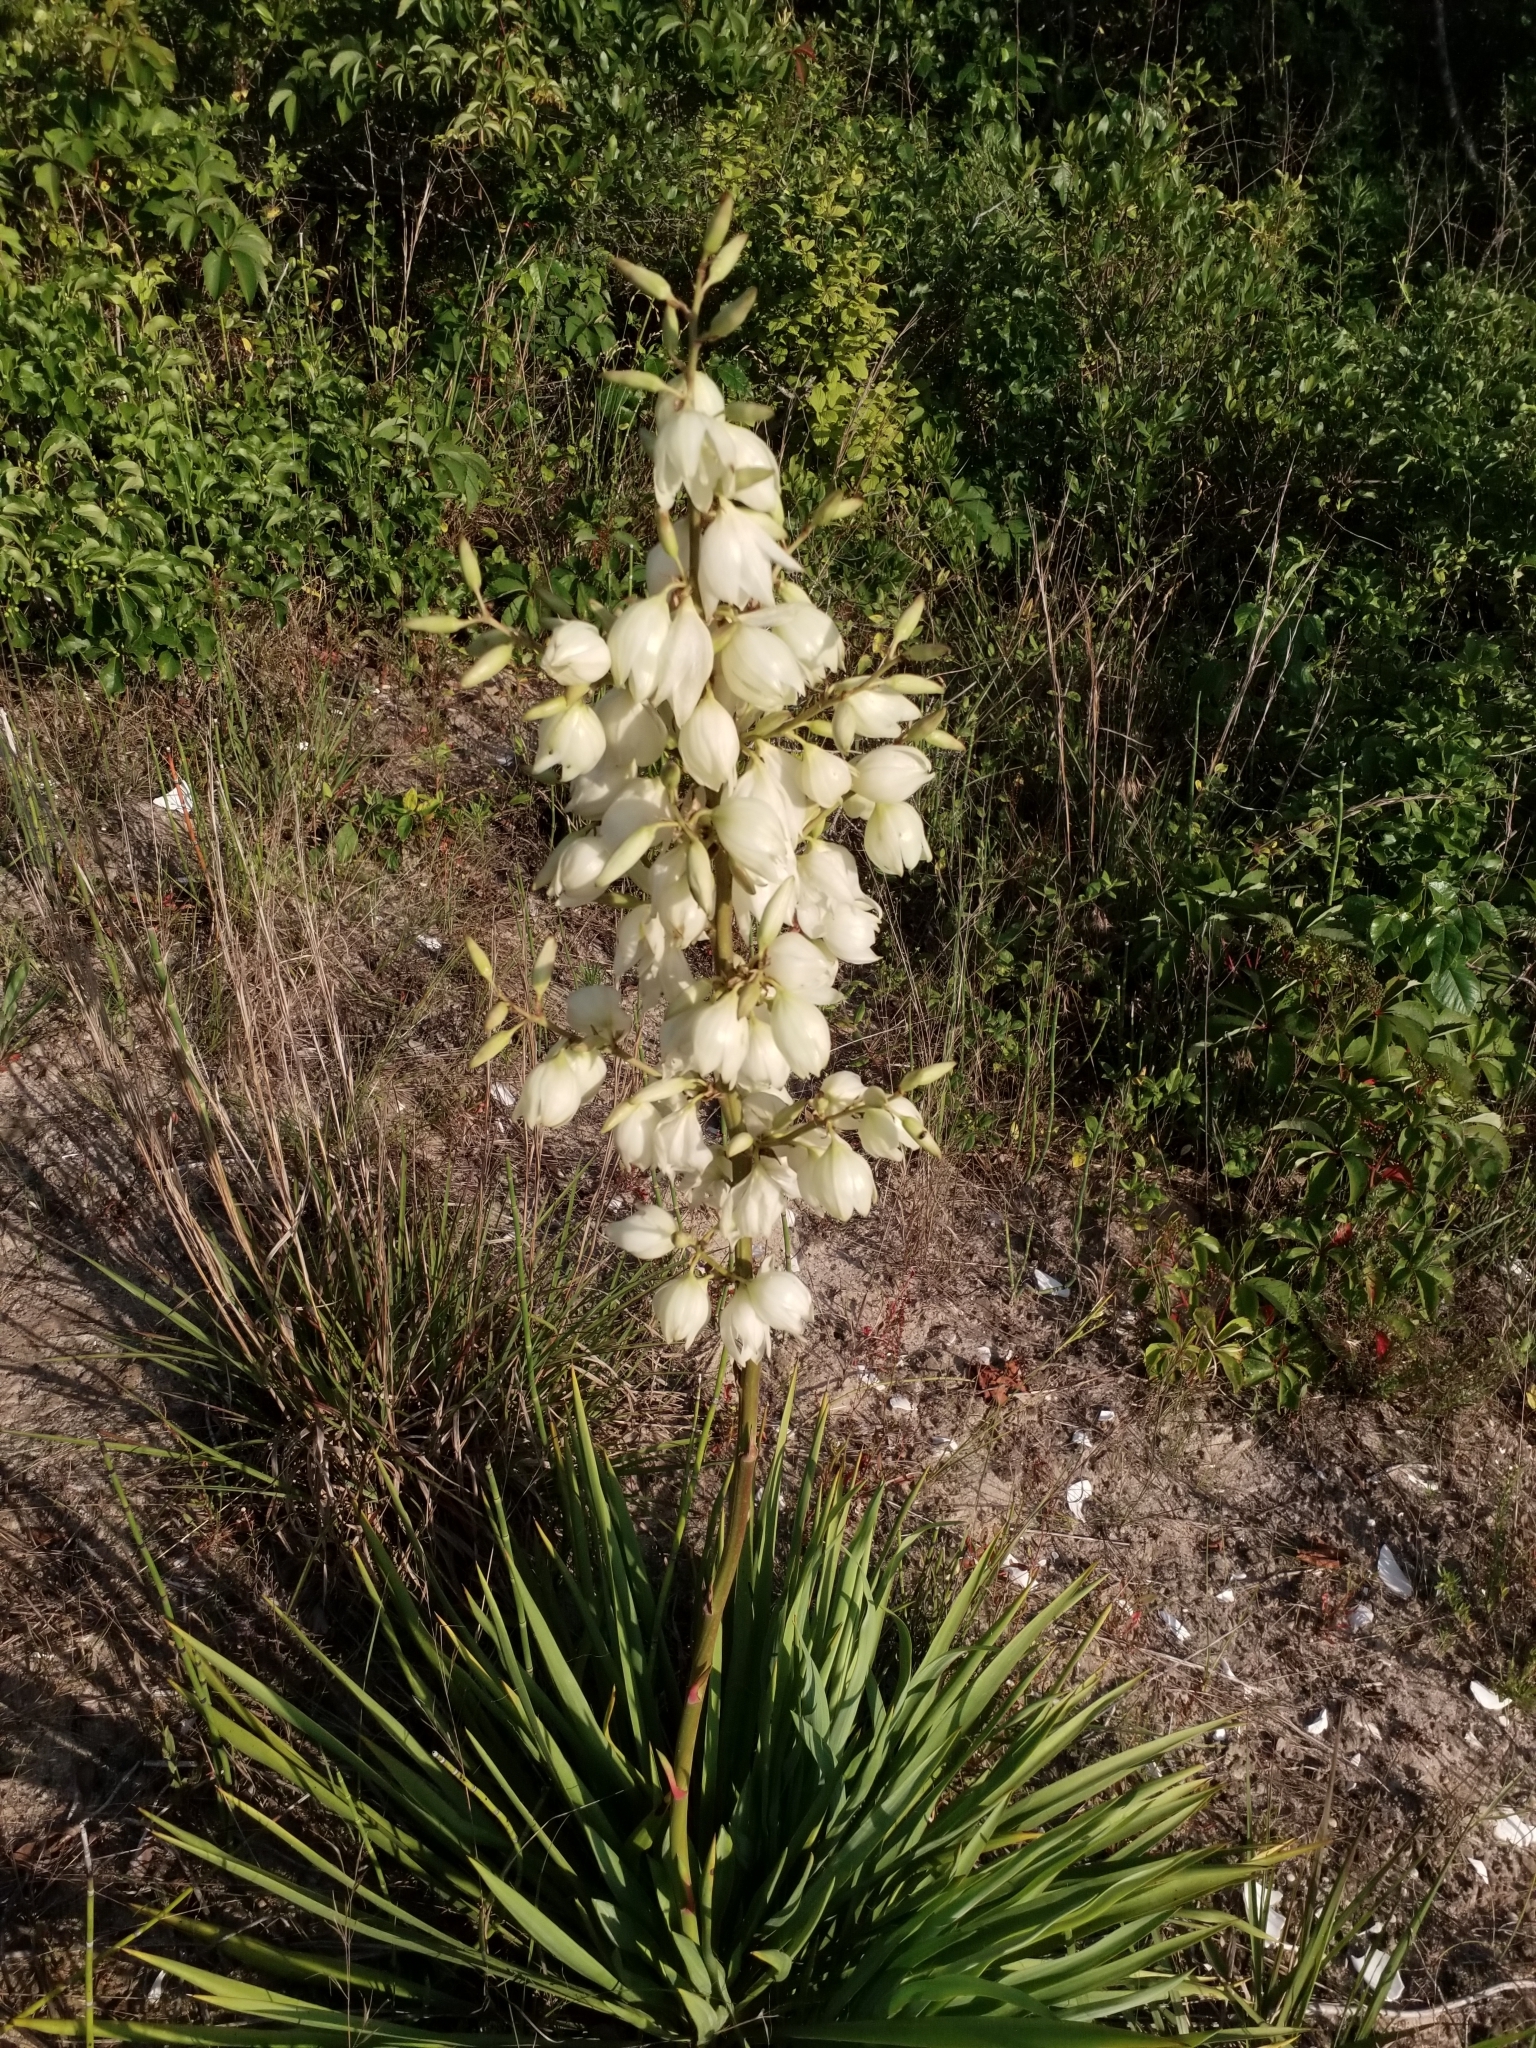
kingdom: Plantae
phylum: Tracheophyta
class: Liliopsida
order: Asparagales
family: Asparagaceae
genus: Yucca
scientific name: Yucca filamentosa
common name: Adam's-needle
